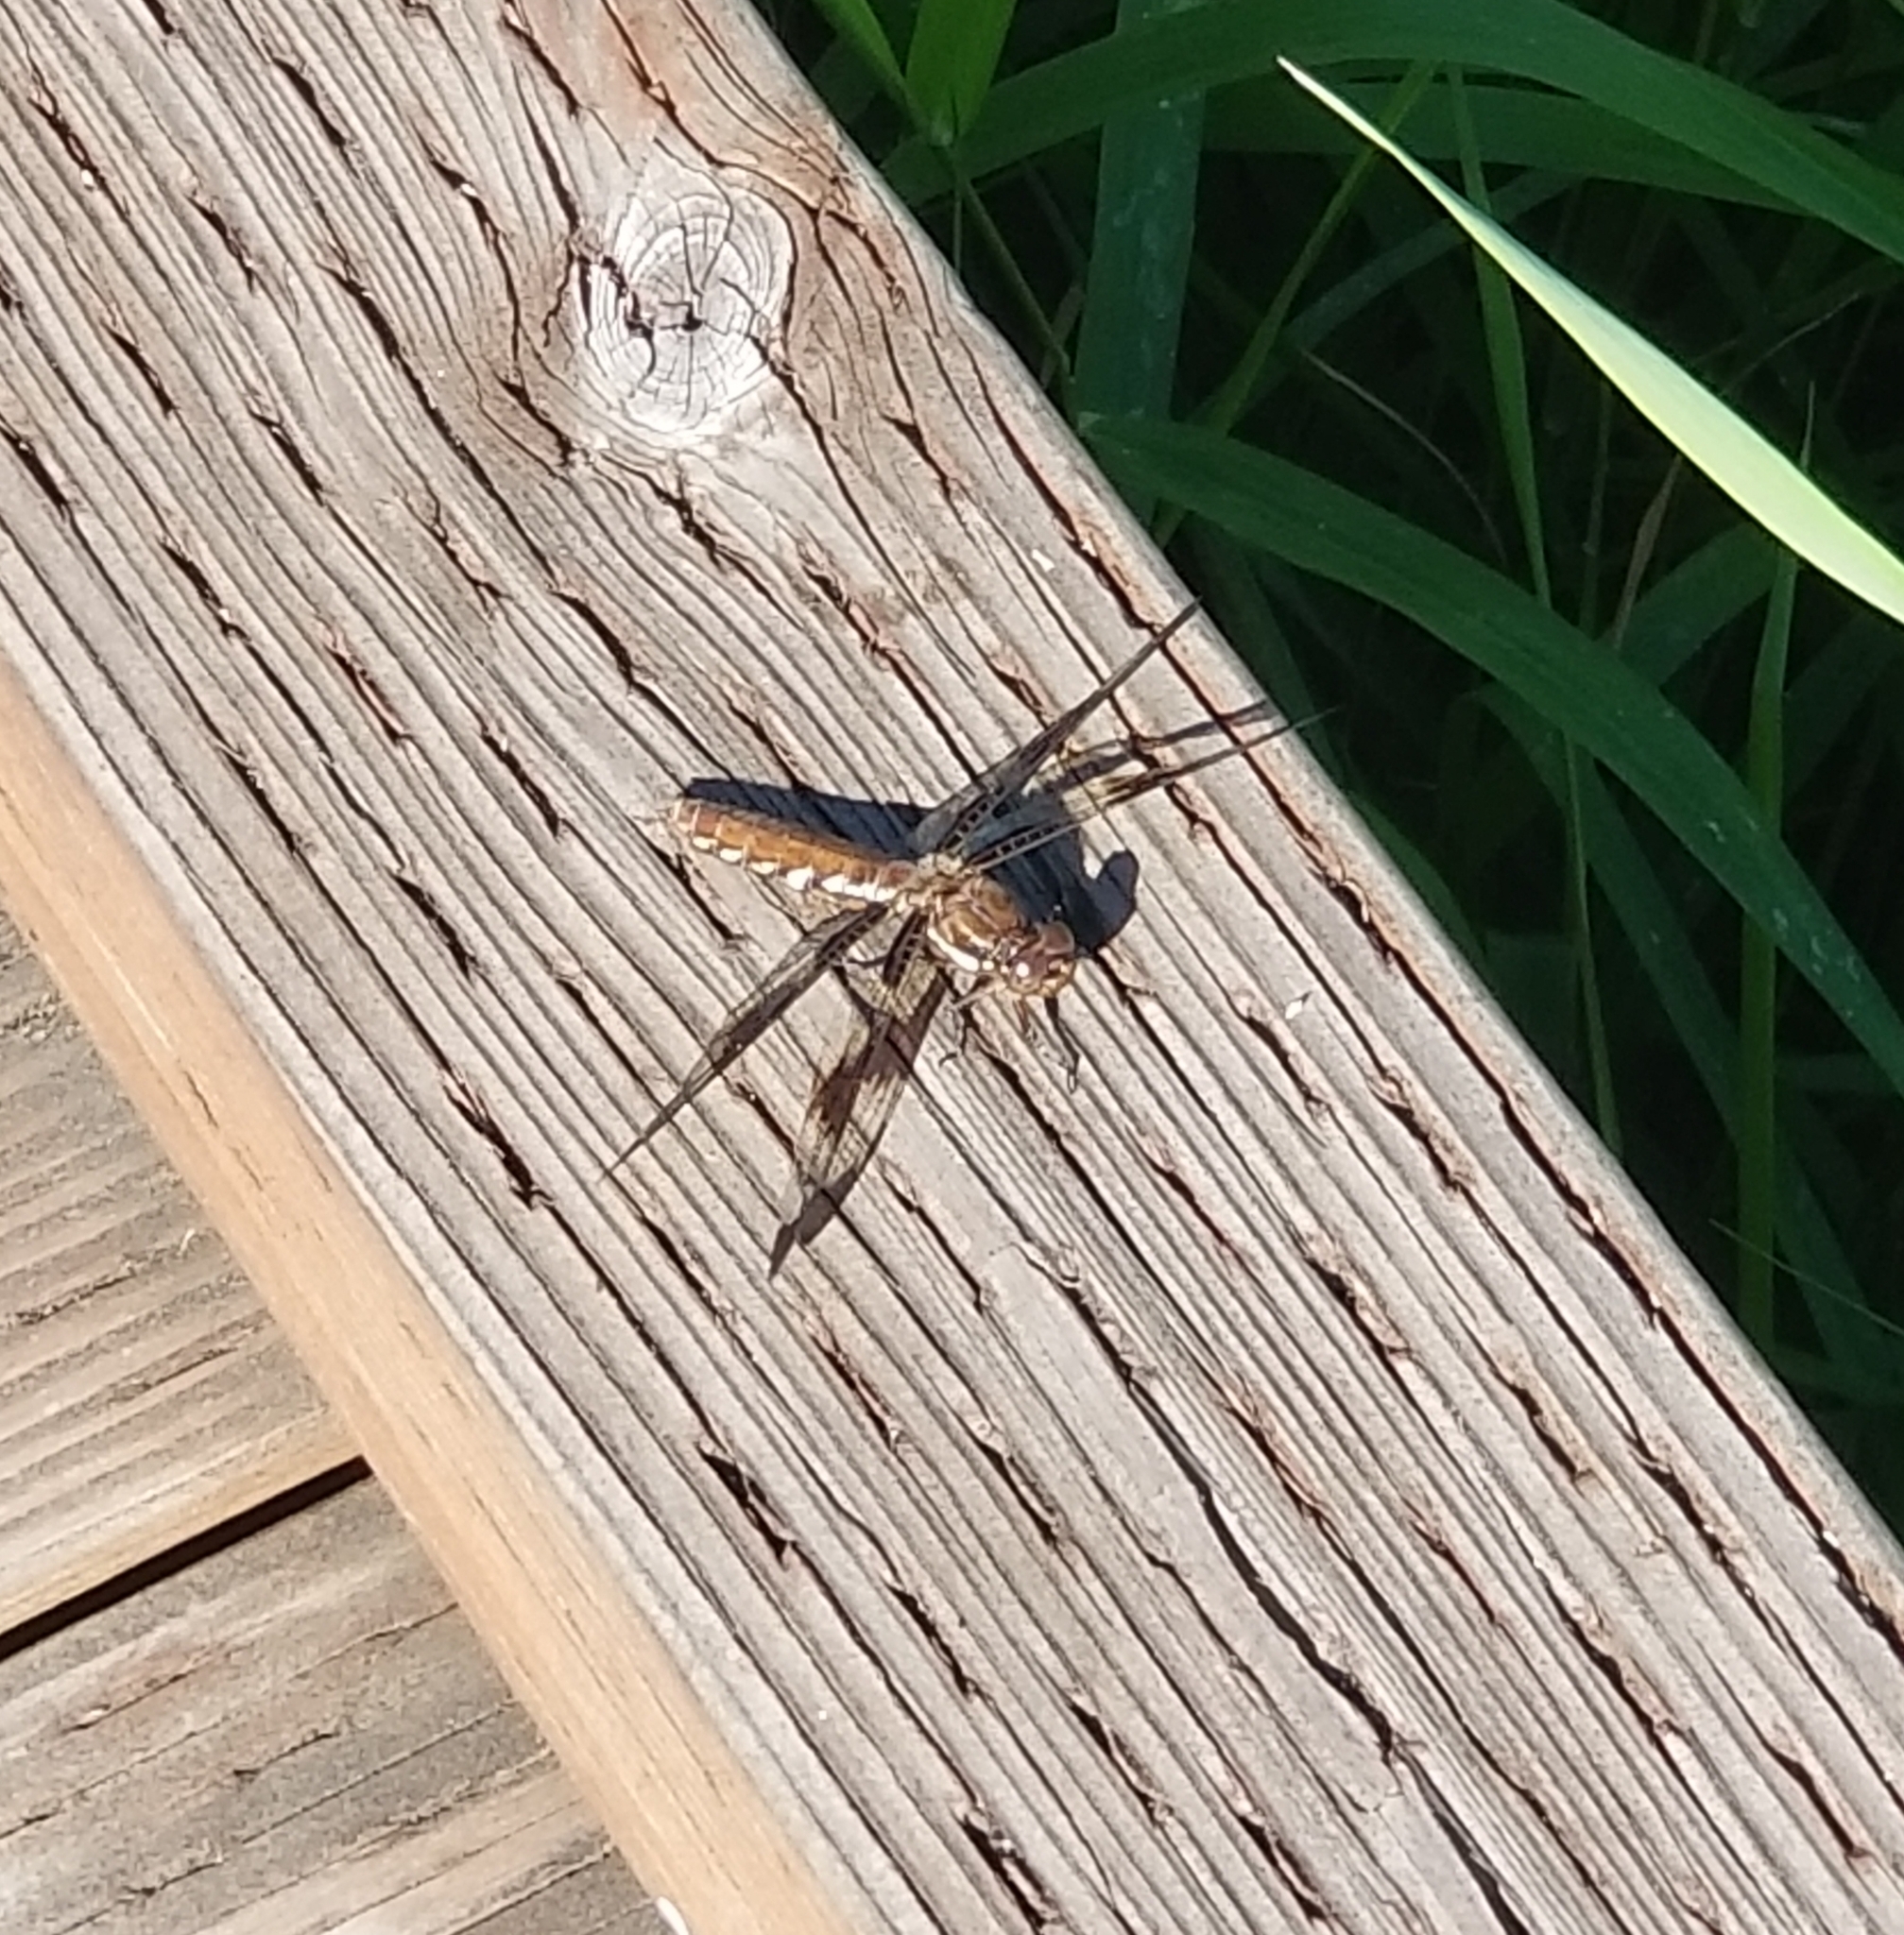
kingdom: Animalia
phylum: Arthropoda
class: Insecta
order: Odonata
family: Libellulidae
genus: Plathemis
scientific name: Plathemis lydia
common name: Common whitetail
